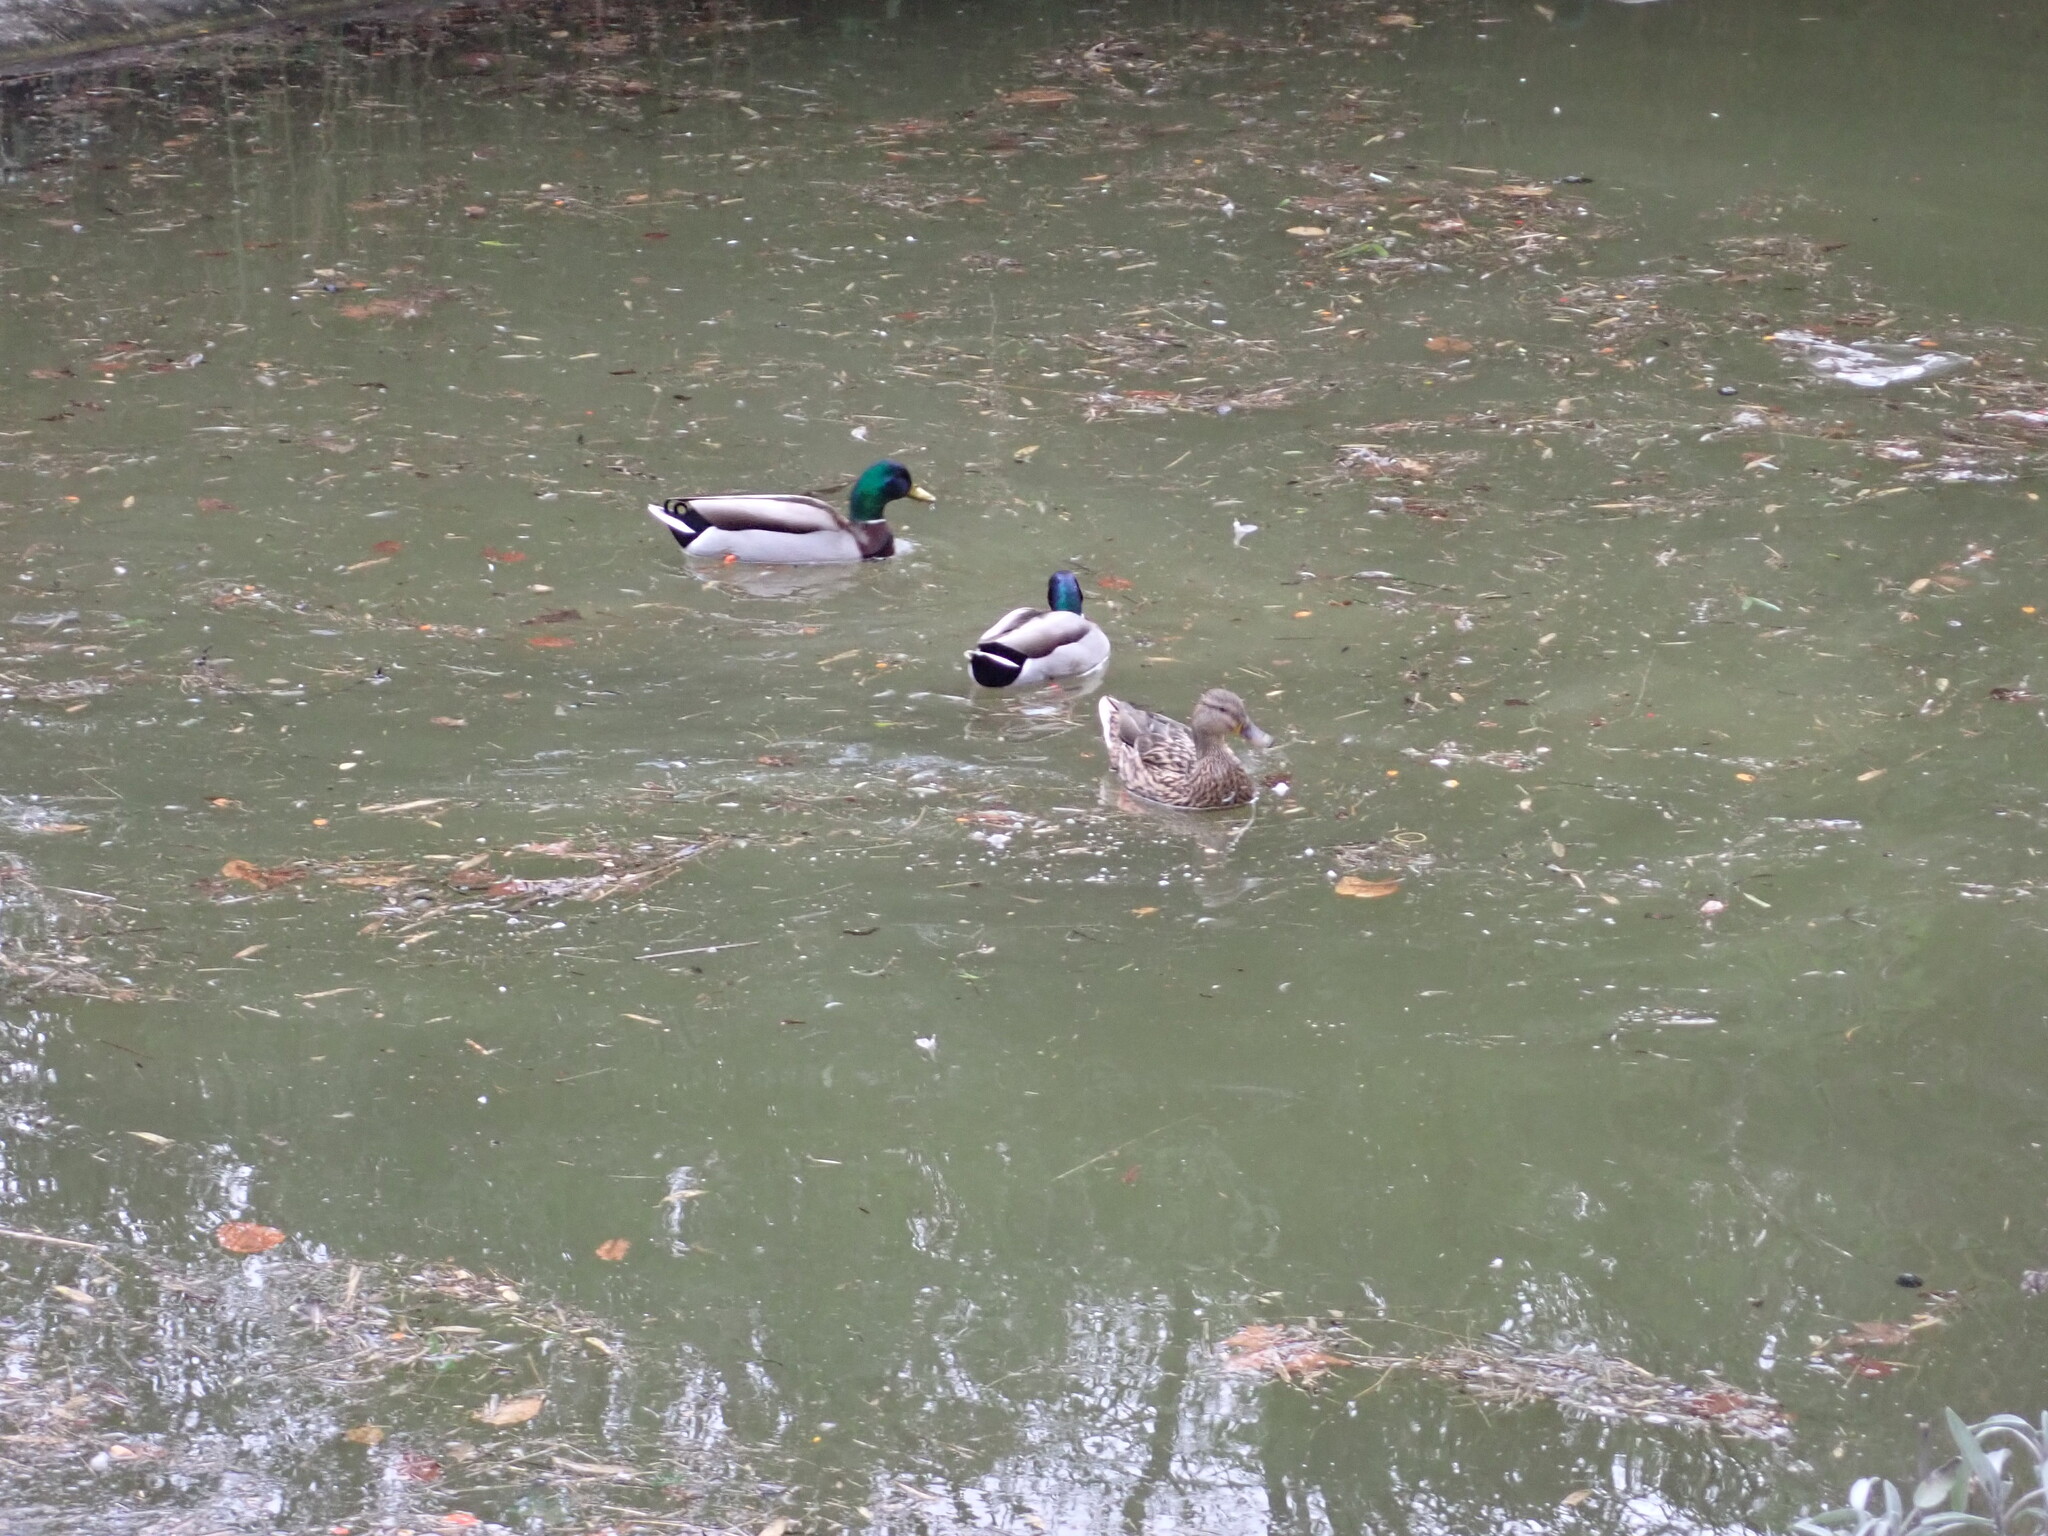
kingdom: Animalia
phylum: Chordata
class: Aves
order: Anseriformes
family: Anatidae
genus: Anas
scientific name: Anas platyrhynchos
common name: Mallard
